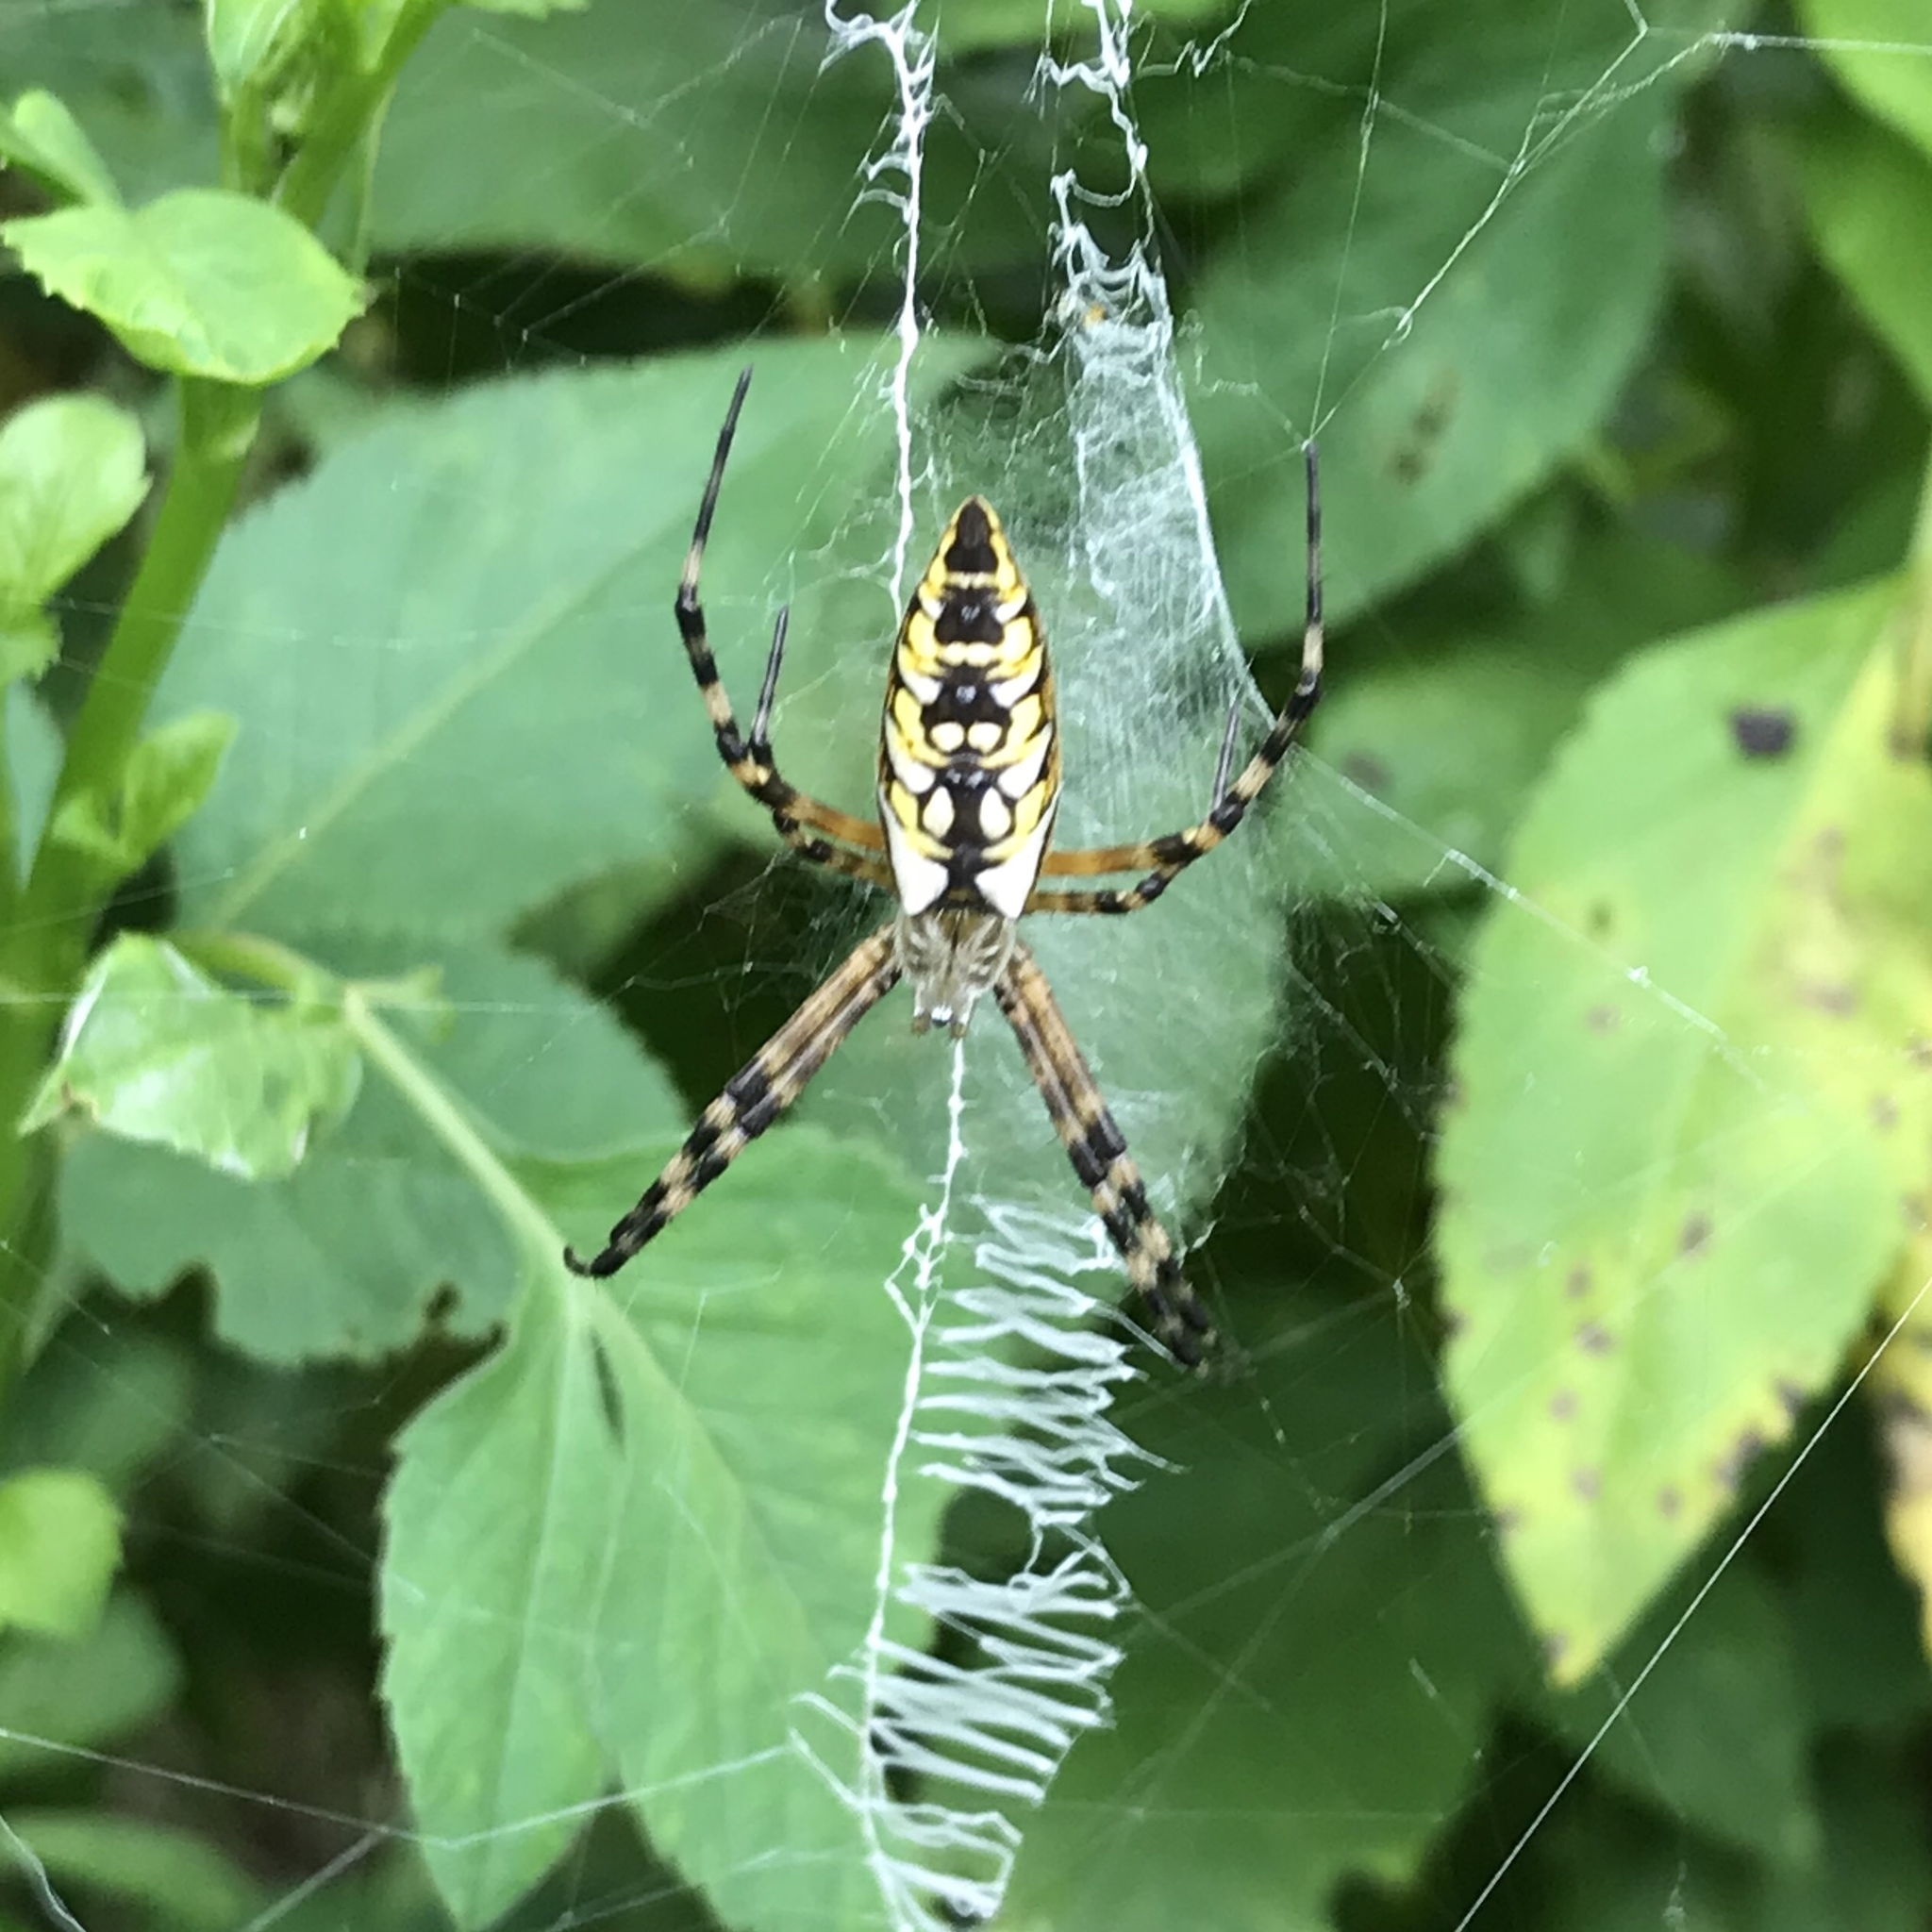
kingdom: Animalia
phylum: Arthropoda
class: Arachnida
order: Araneae
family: Araneidae
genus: Argiope
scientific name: Argiope aurantia
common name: Orb weavers
